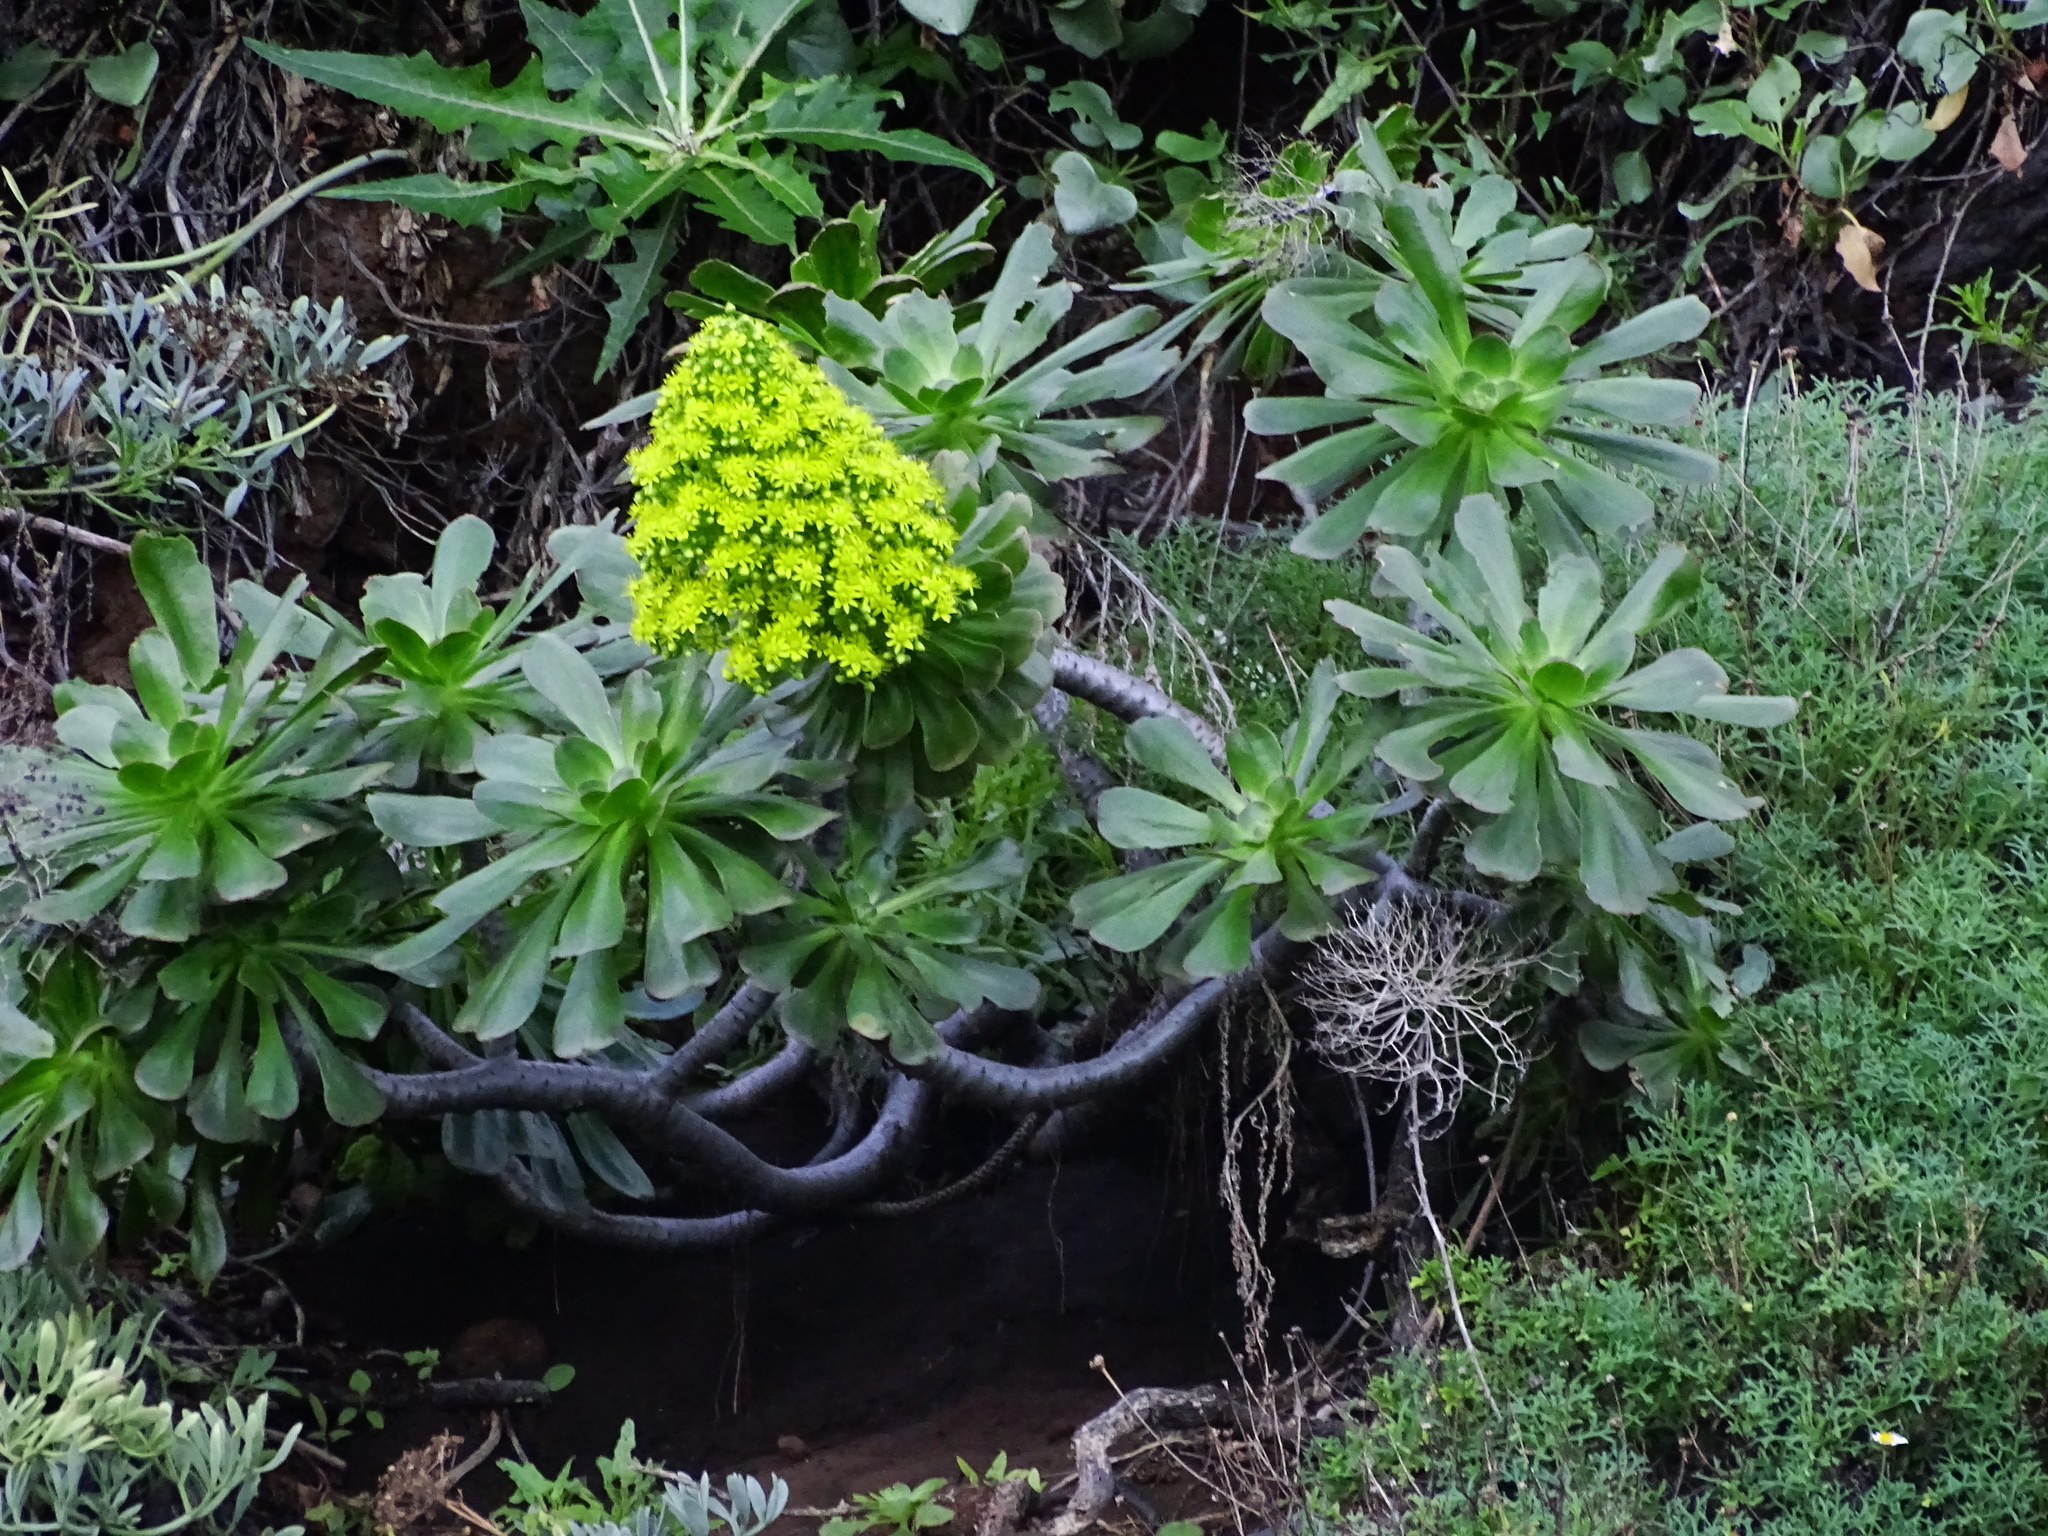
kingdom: Plantae
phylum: Tracheophyta
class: Magnoliopsida
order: Saxifragales
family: Crassulaceae
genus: Aeonium
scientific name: Aeonium arboreum
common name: Tree aeonium
